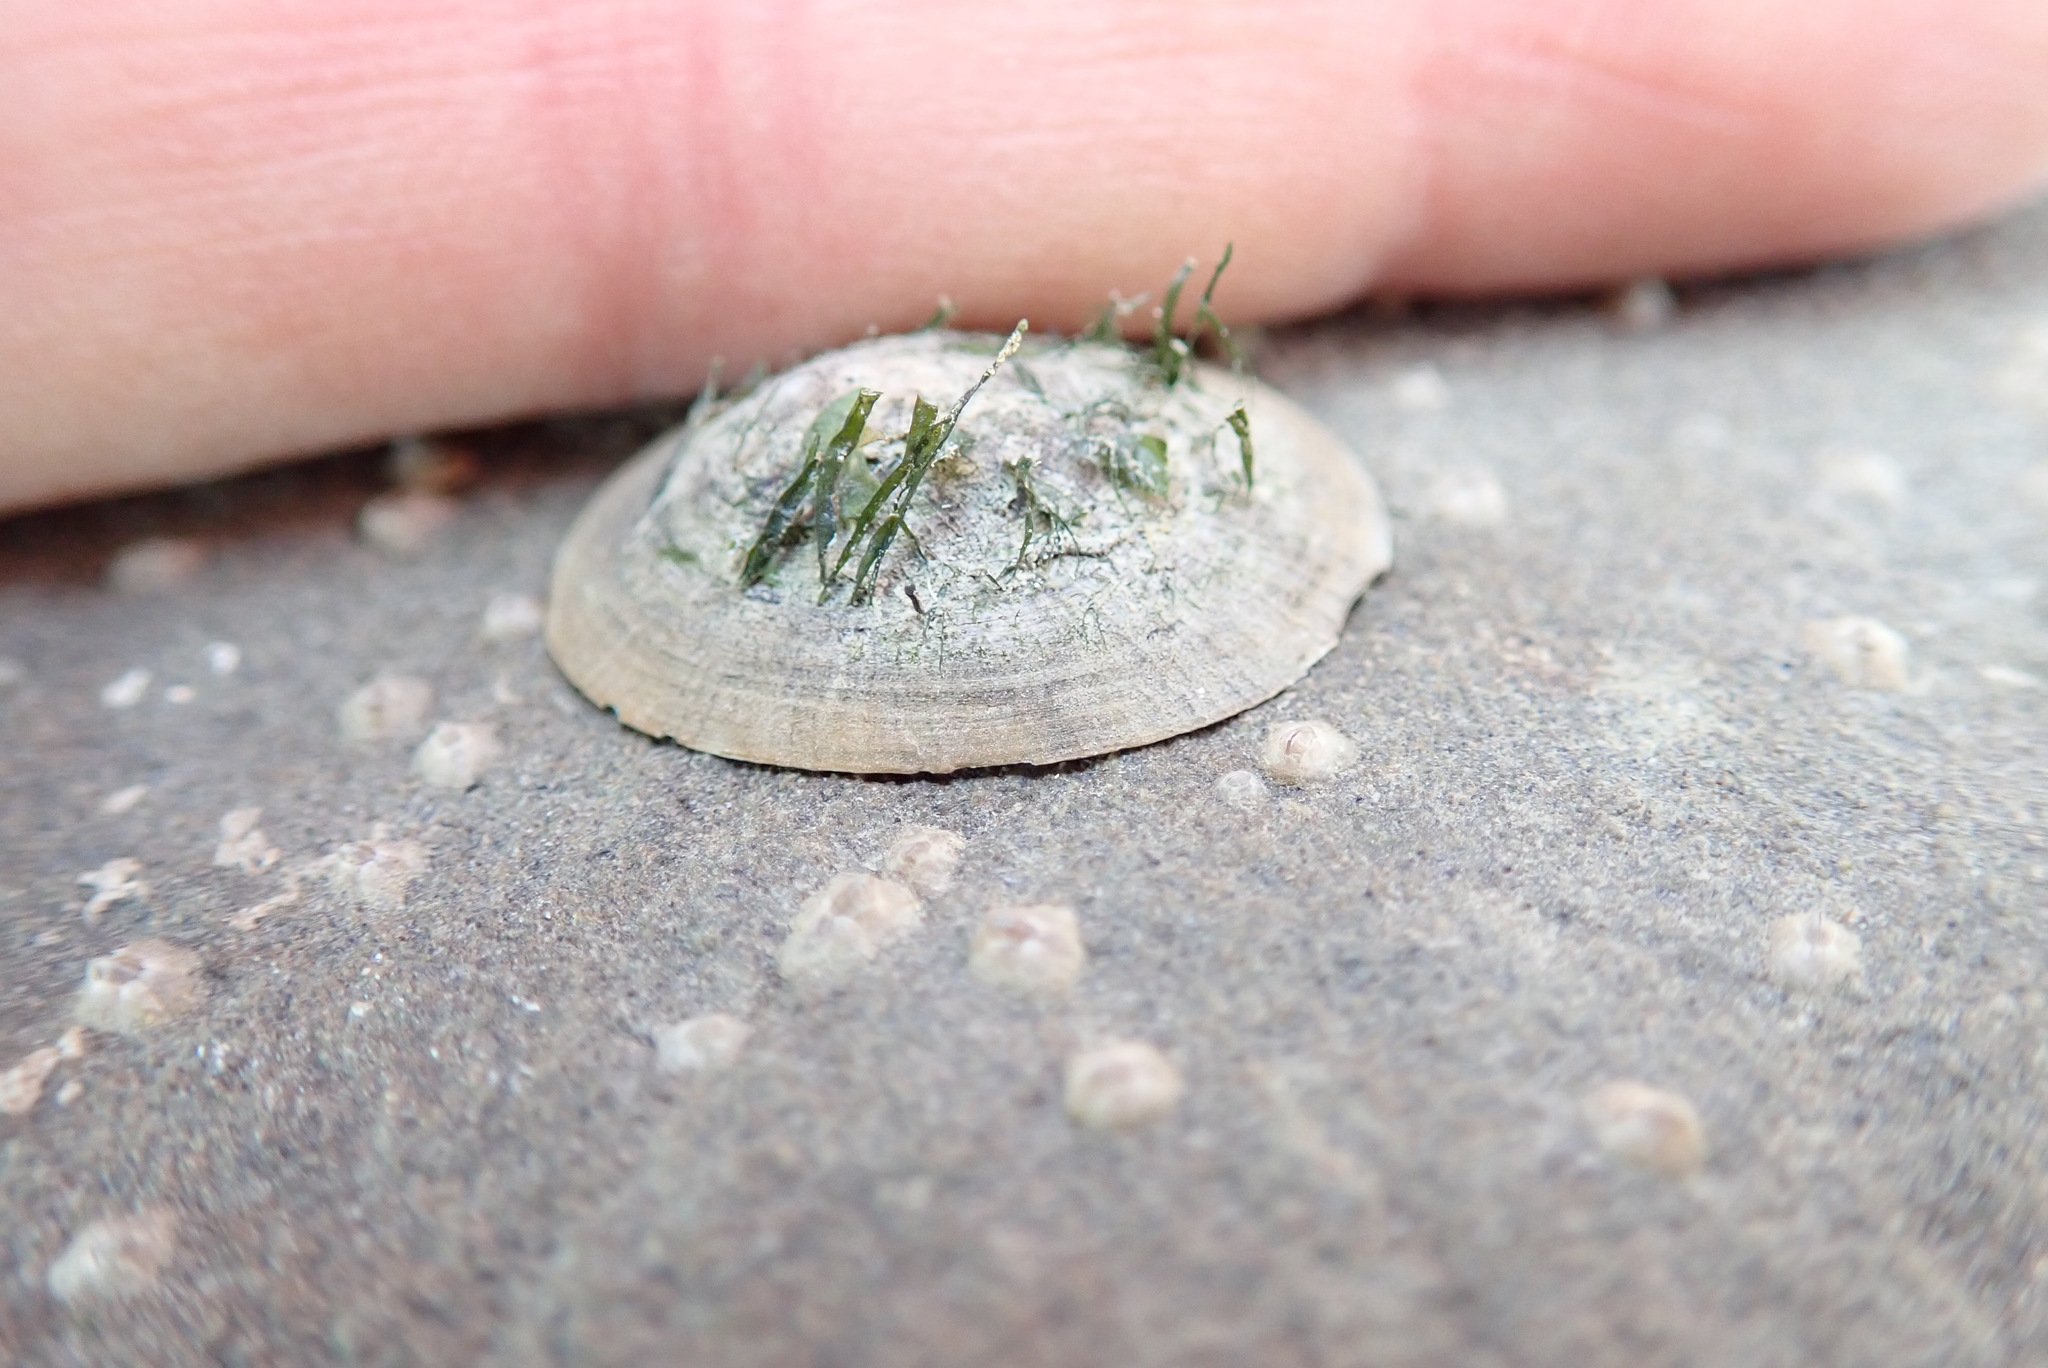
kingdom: Animalia
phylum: Mollusca
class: Gastropoda
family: Lottiidae
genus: Lottia
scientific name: Lottia scutum
